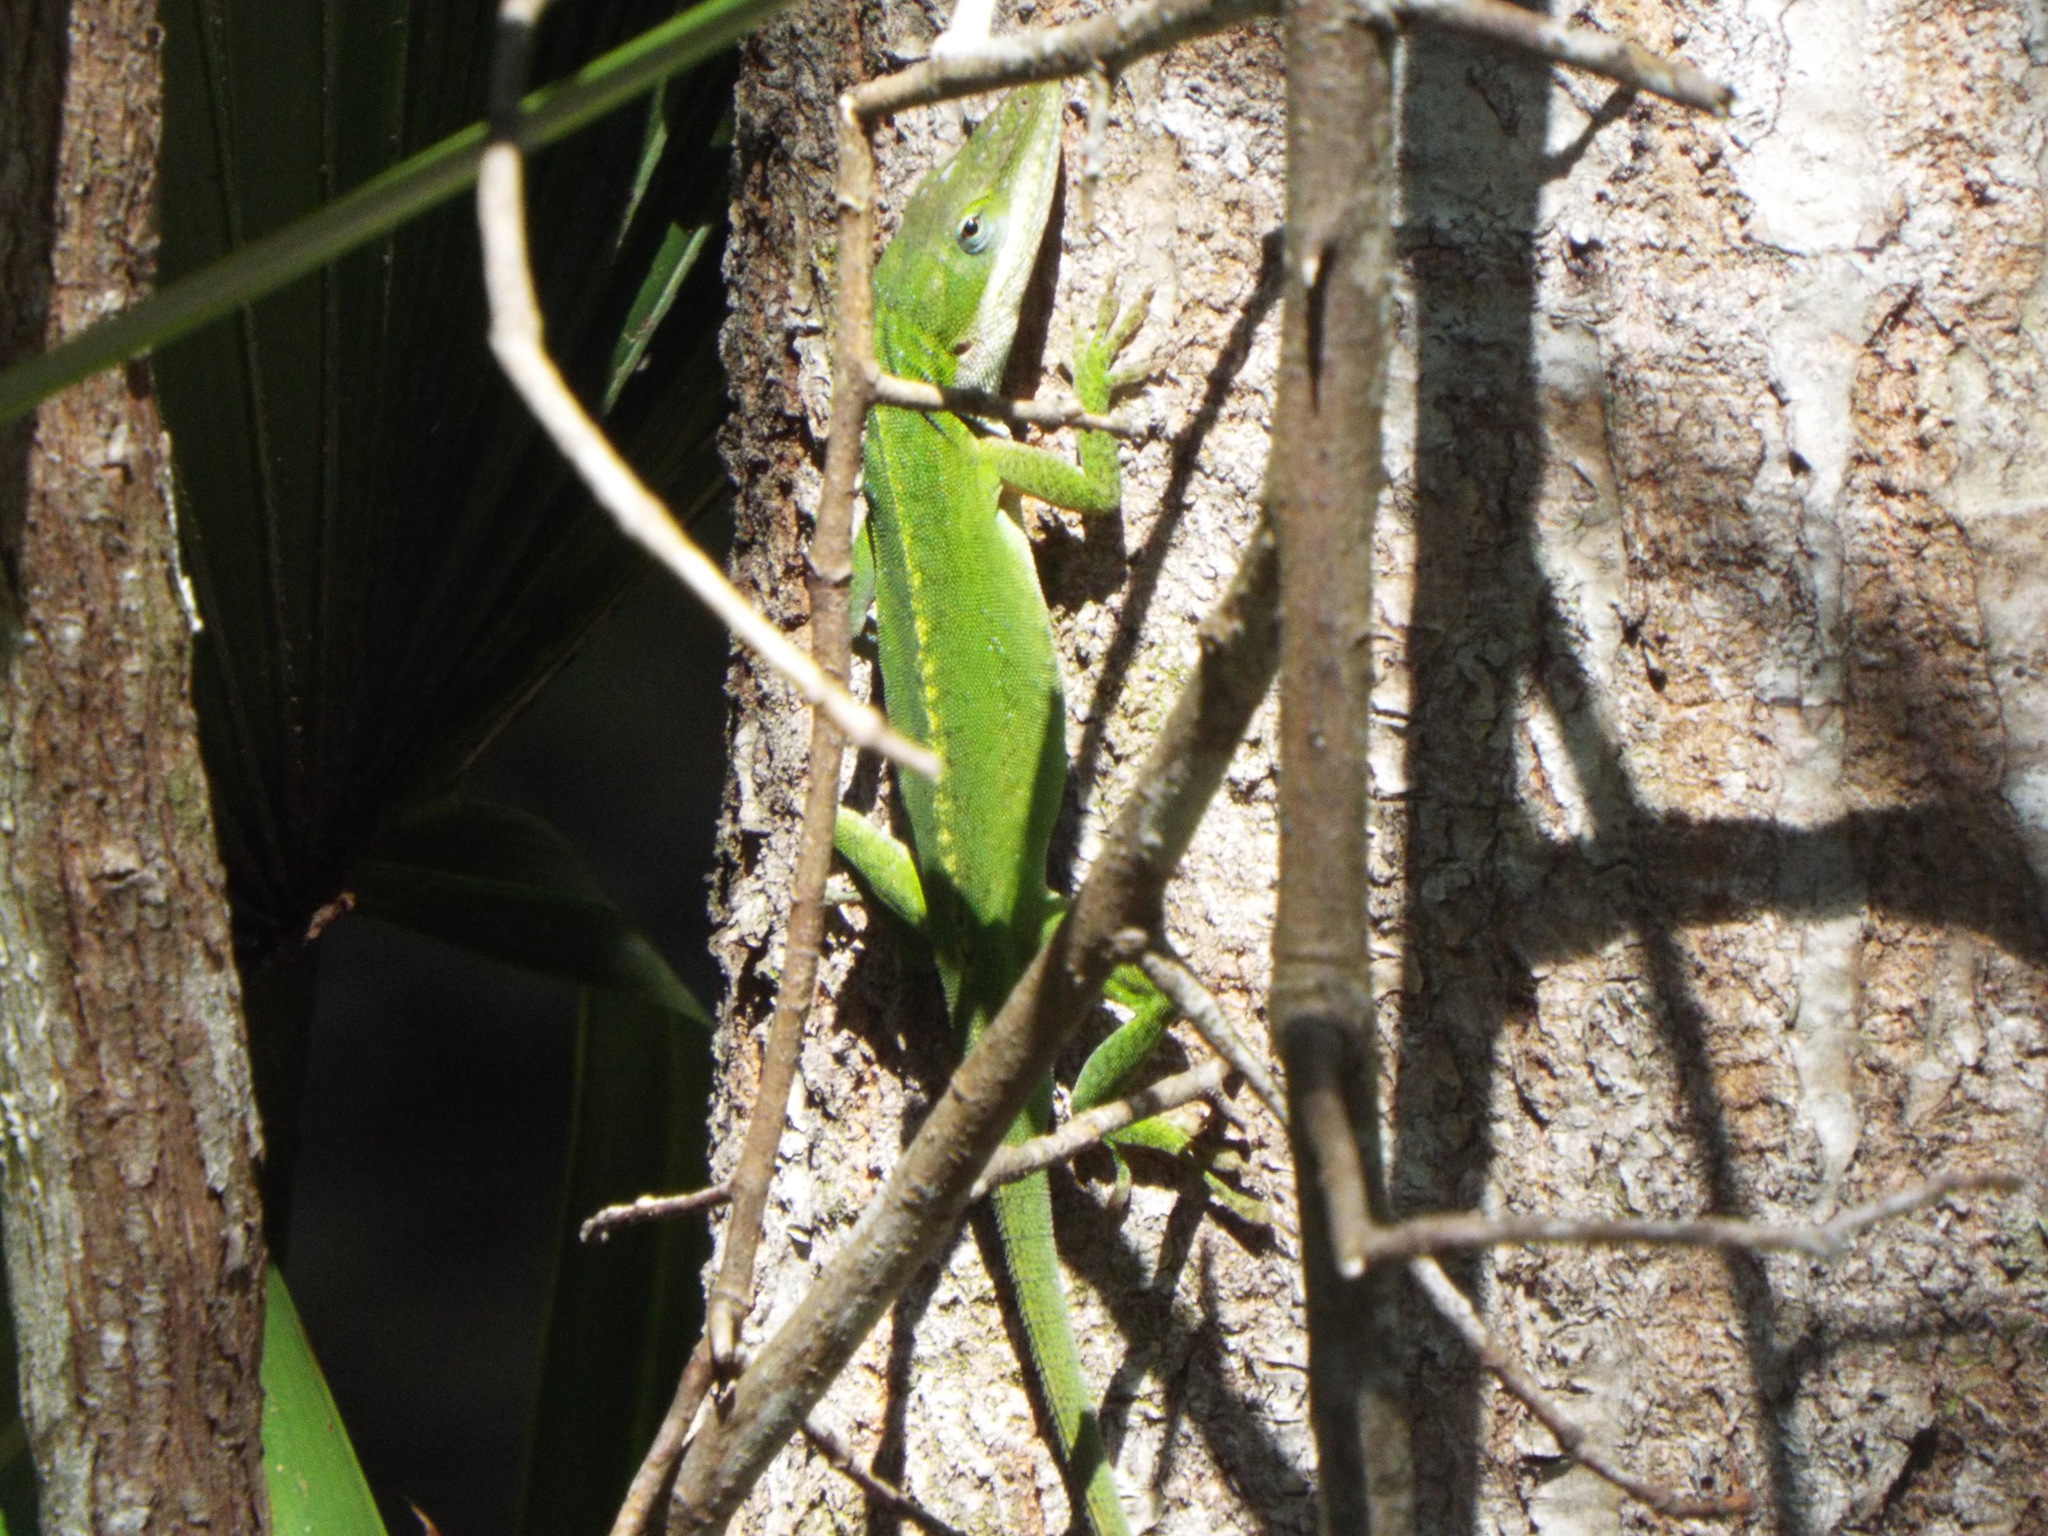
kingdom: Animalia
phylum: Chordata
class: Squamata
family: Dactyloidae
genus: Anolis
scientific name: Anolis carolinensis
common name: Green anole
